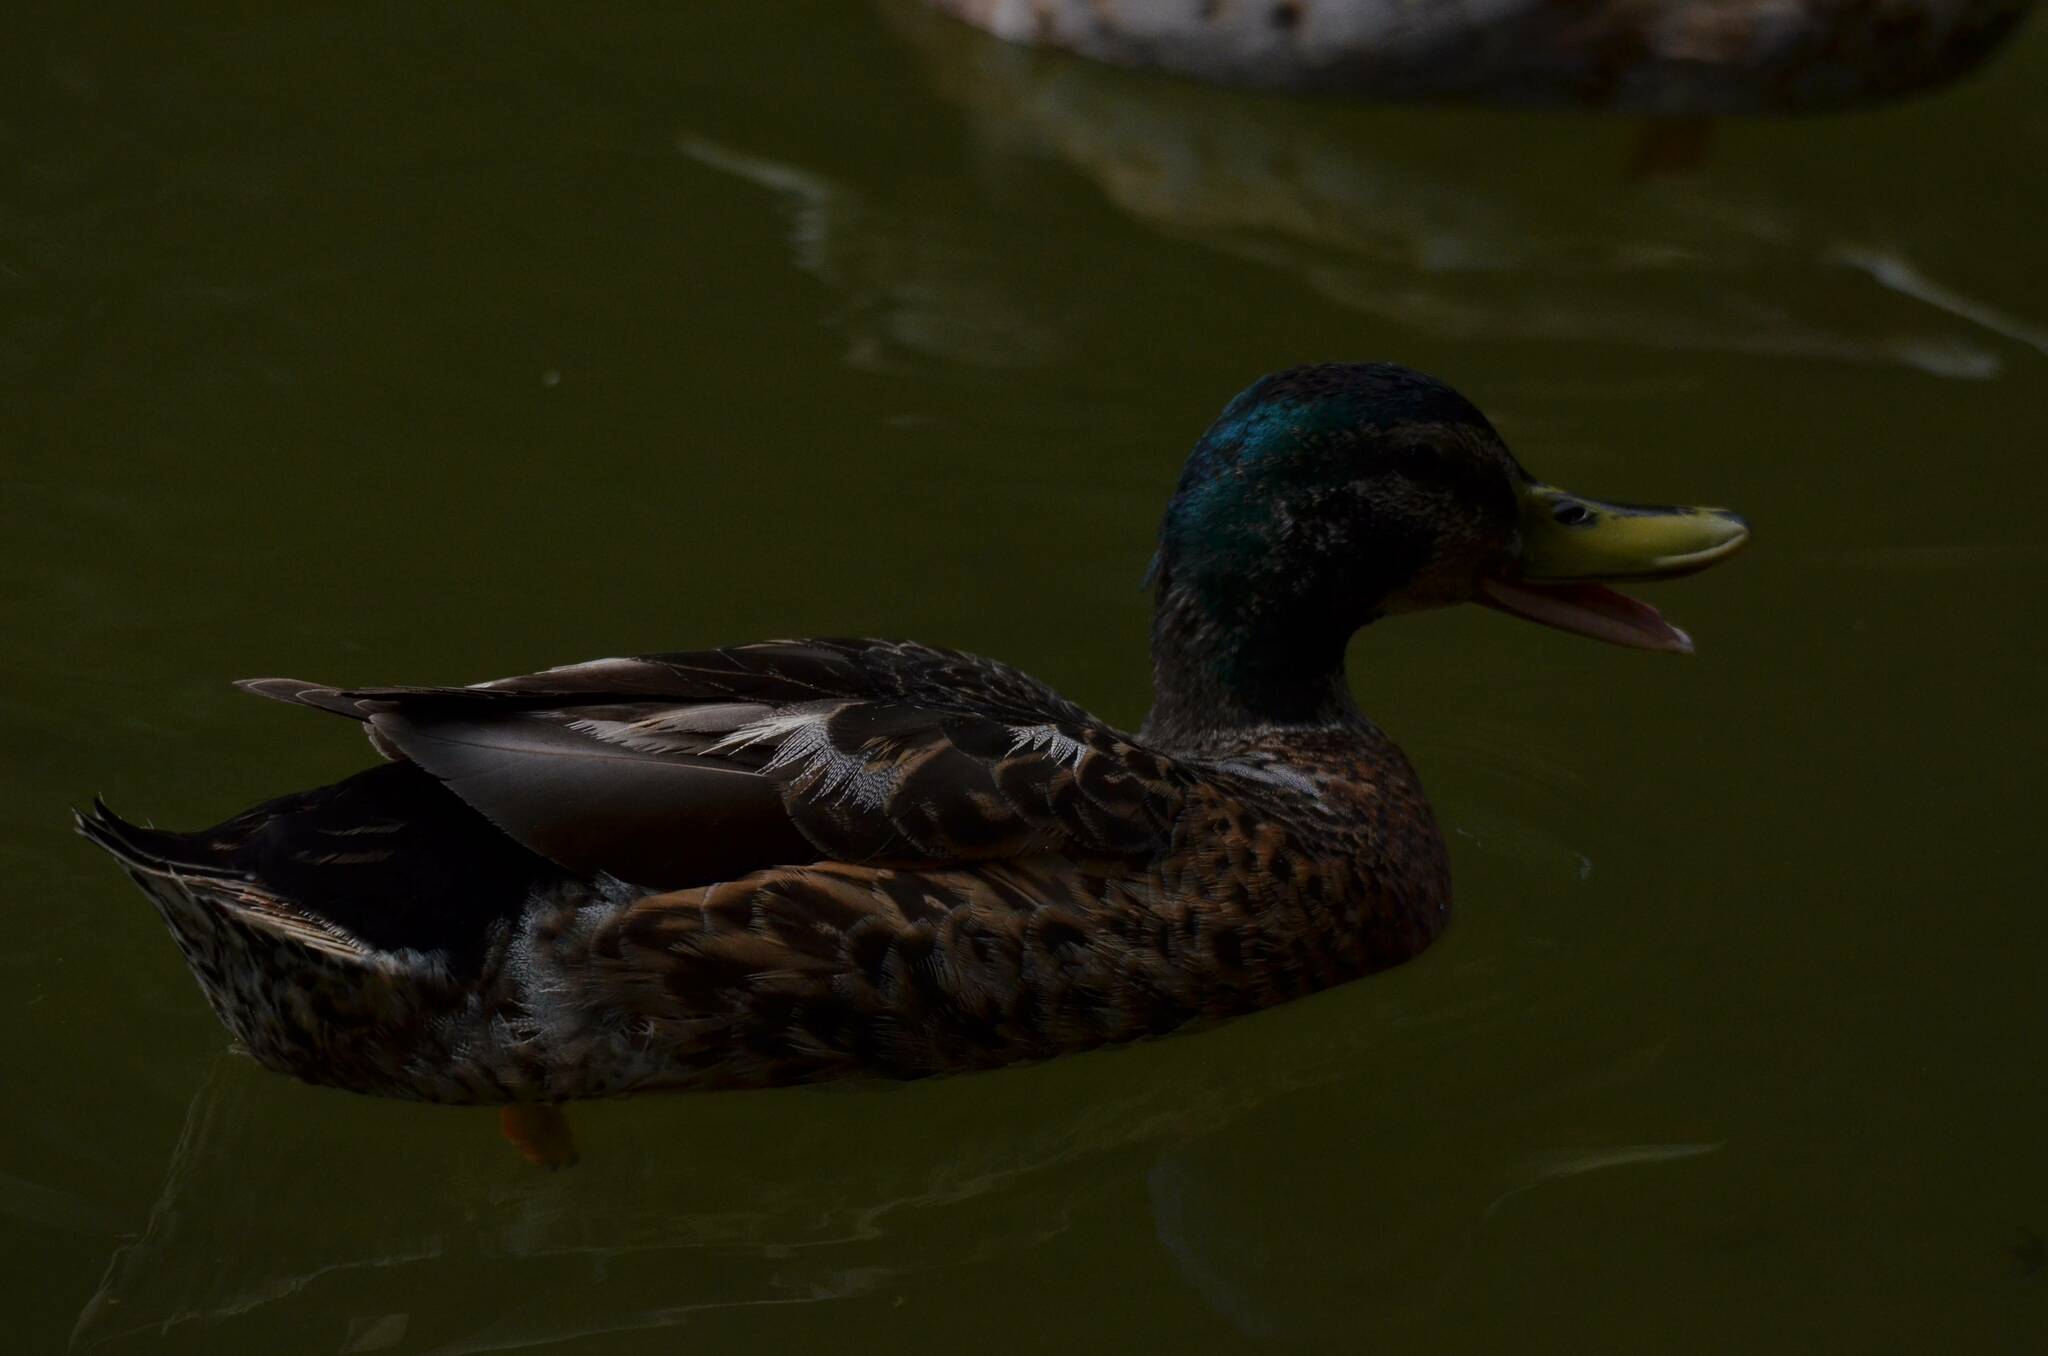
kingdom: Animalia
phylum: Chordata
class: Aves
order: Anseriformes
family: Anatidae
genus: Anas
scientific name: Anas platyrhynchos
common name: Mallard
